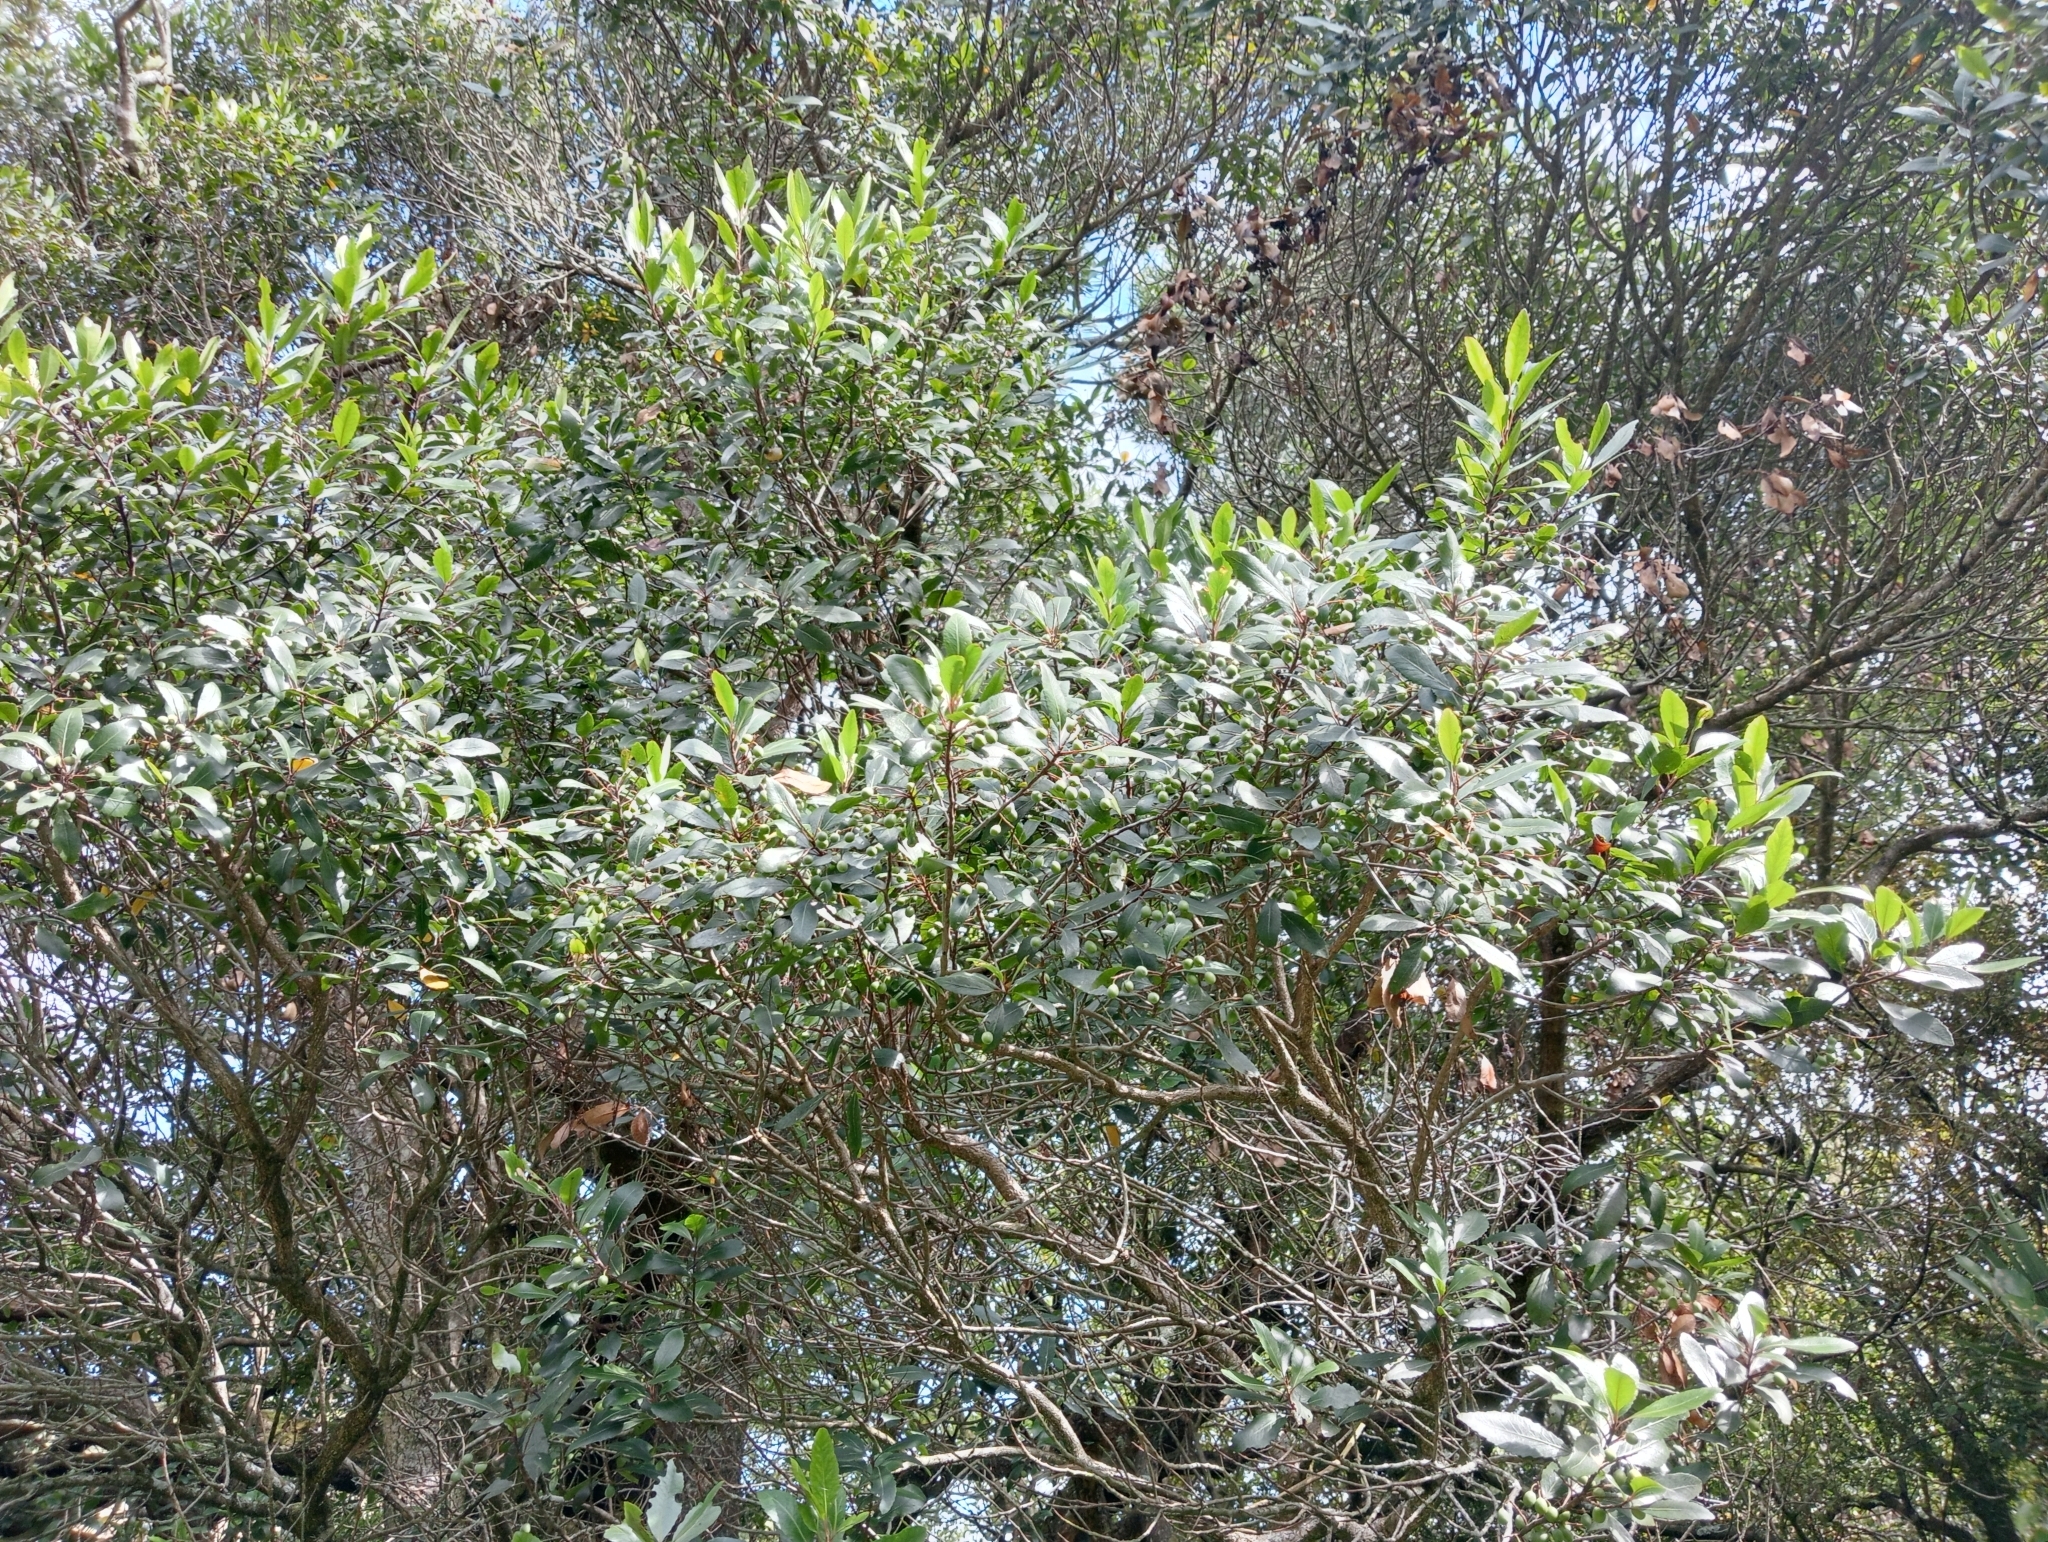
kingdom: Plantae
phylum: Tracheophyta
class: Magnoliopsida
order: Oxalidales
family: Elaeocarpaceae
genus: Elaeocarpus
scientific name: Elaeocarpus hookerianus
